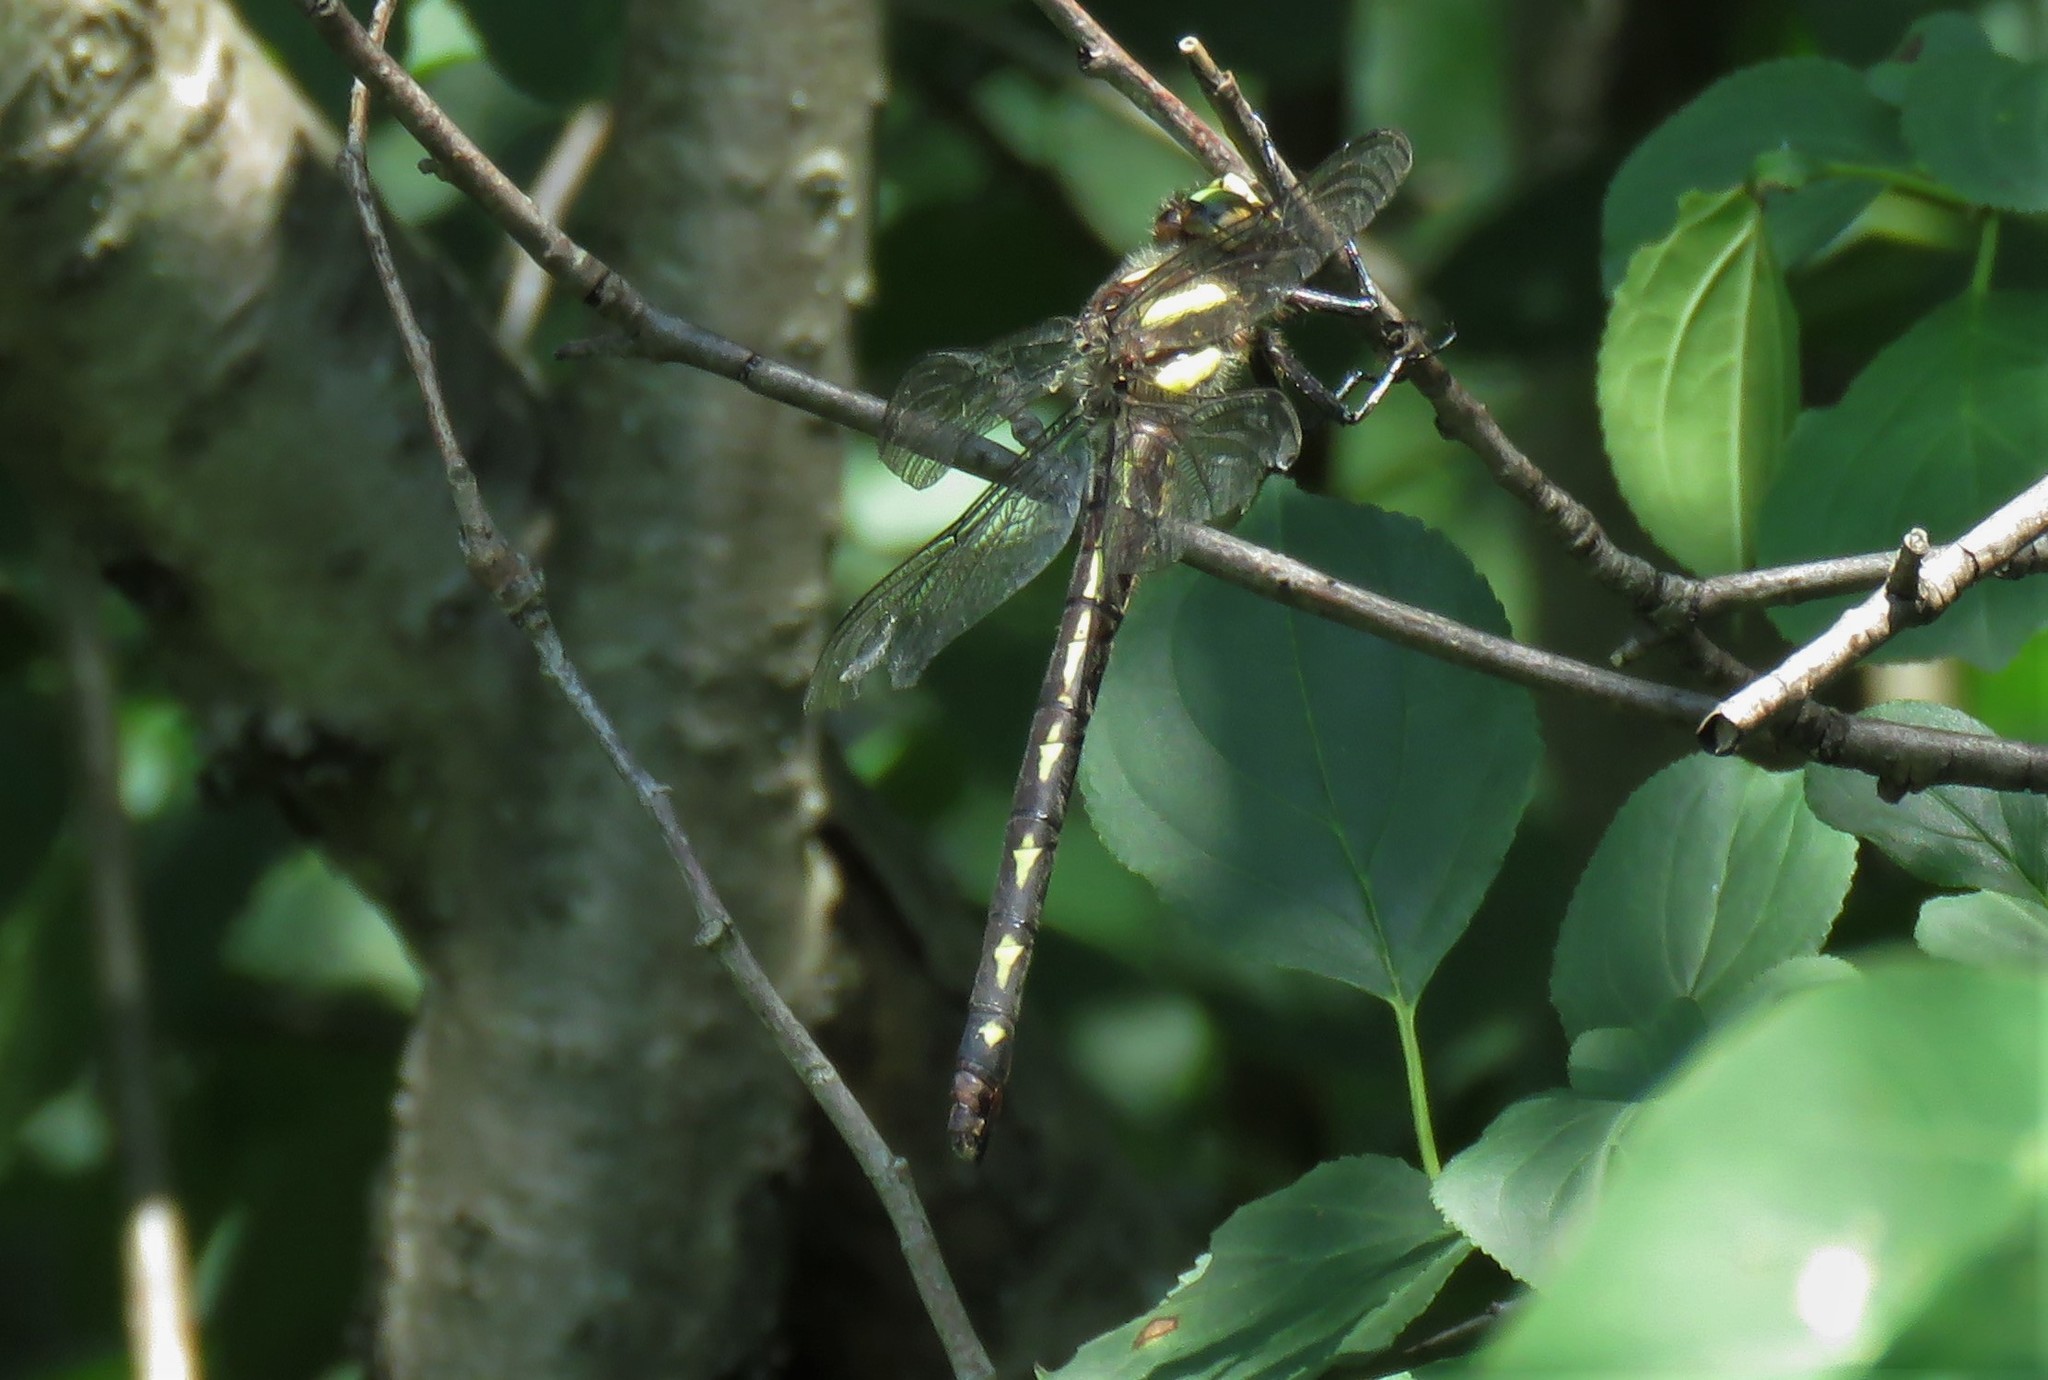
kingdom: Animalia
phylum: Arthropoda
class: Insecta
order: Odonata
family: Cordulegastridae
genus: Cordulegaster
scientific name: Cordulegaster diastatops
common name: Delta-spotted spiketail
